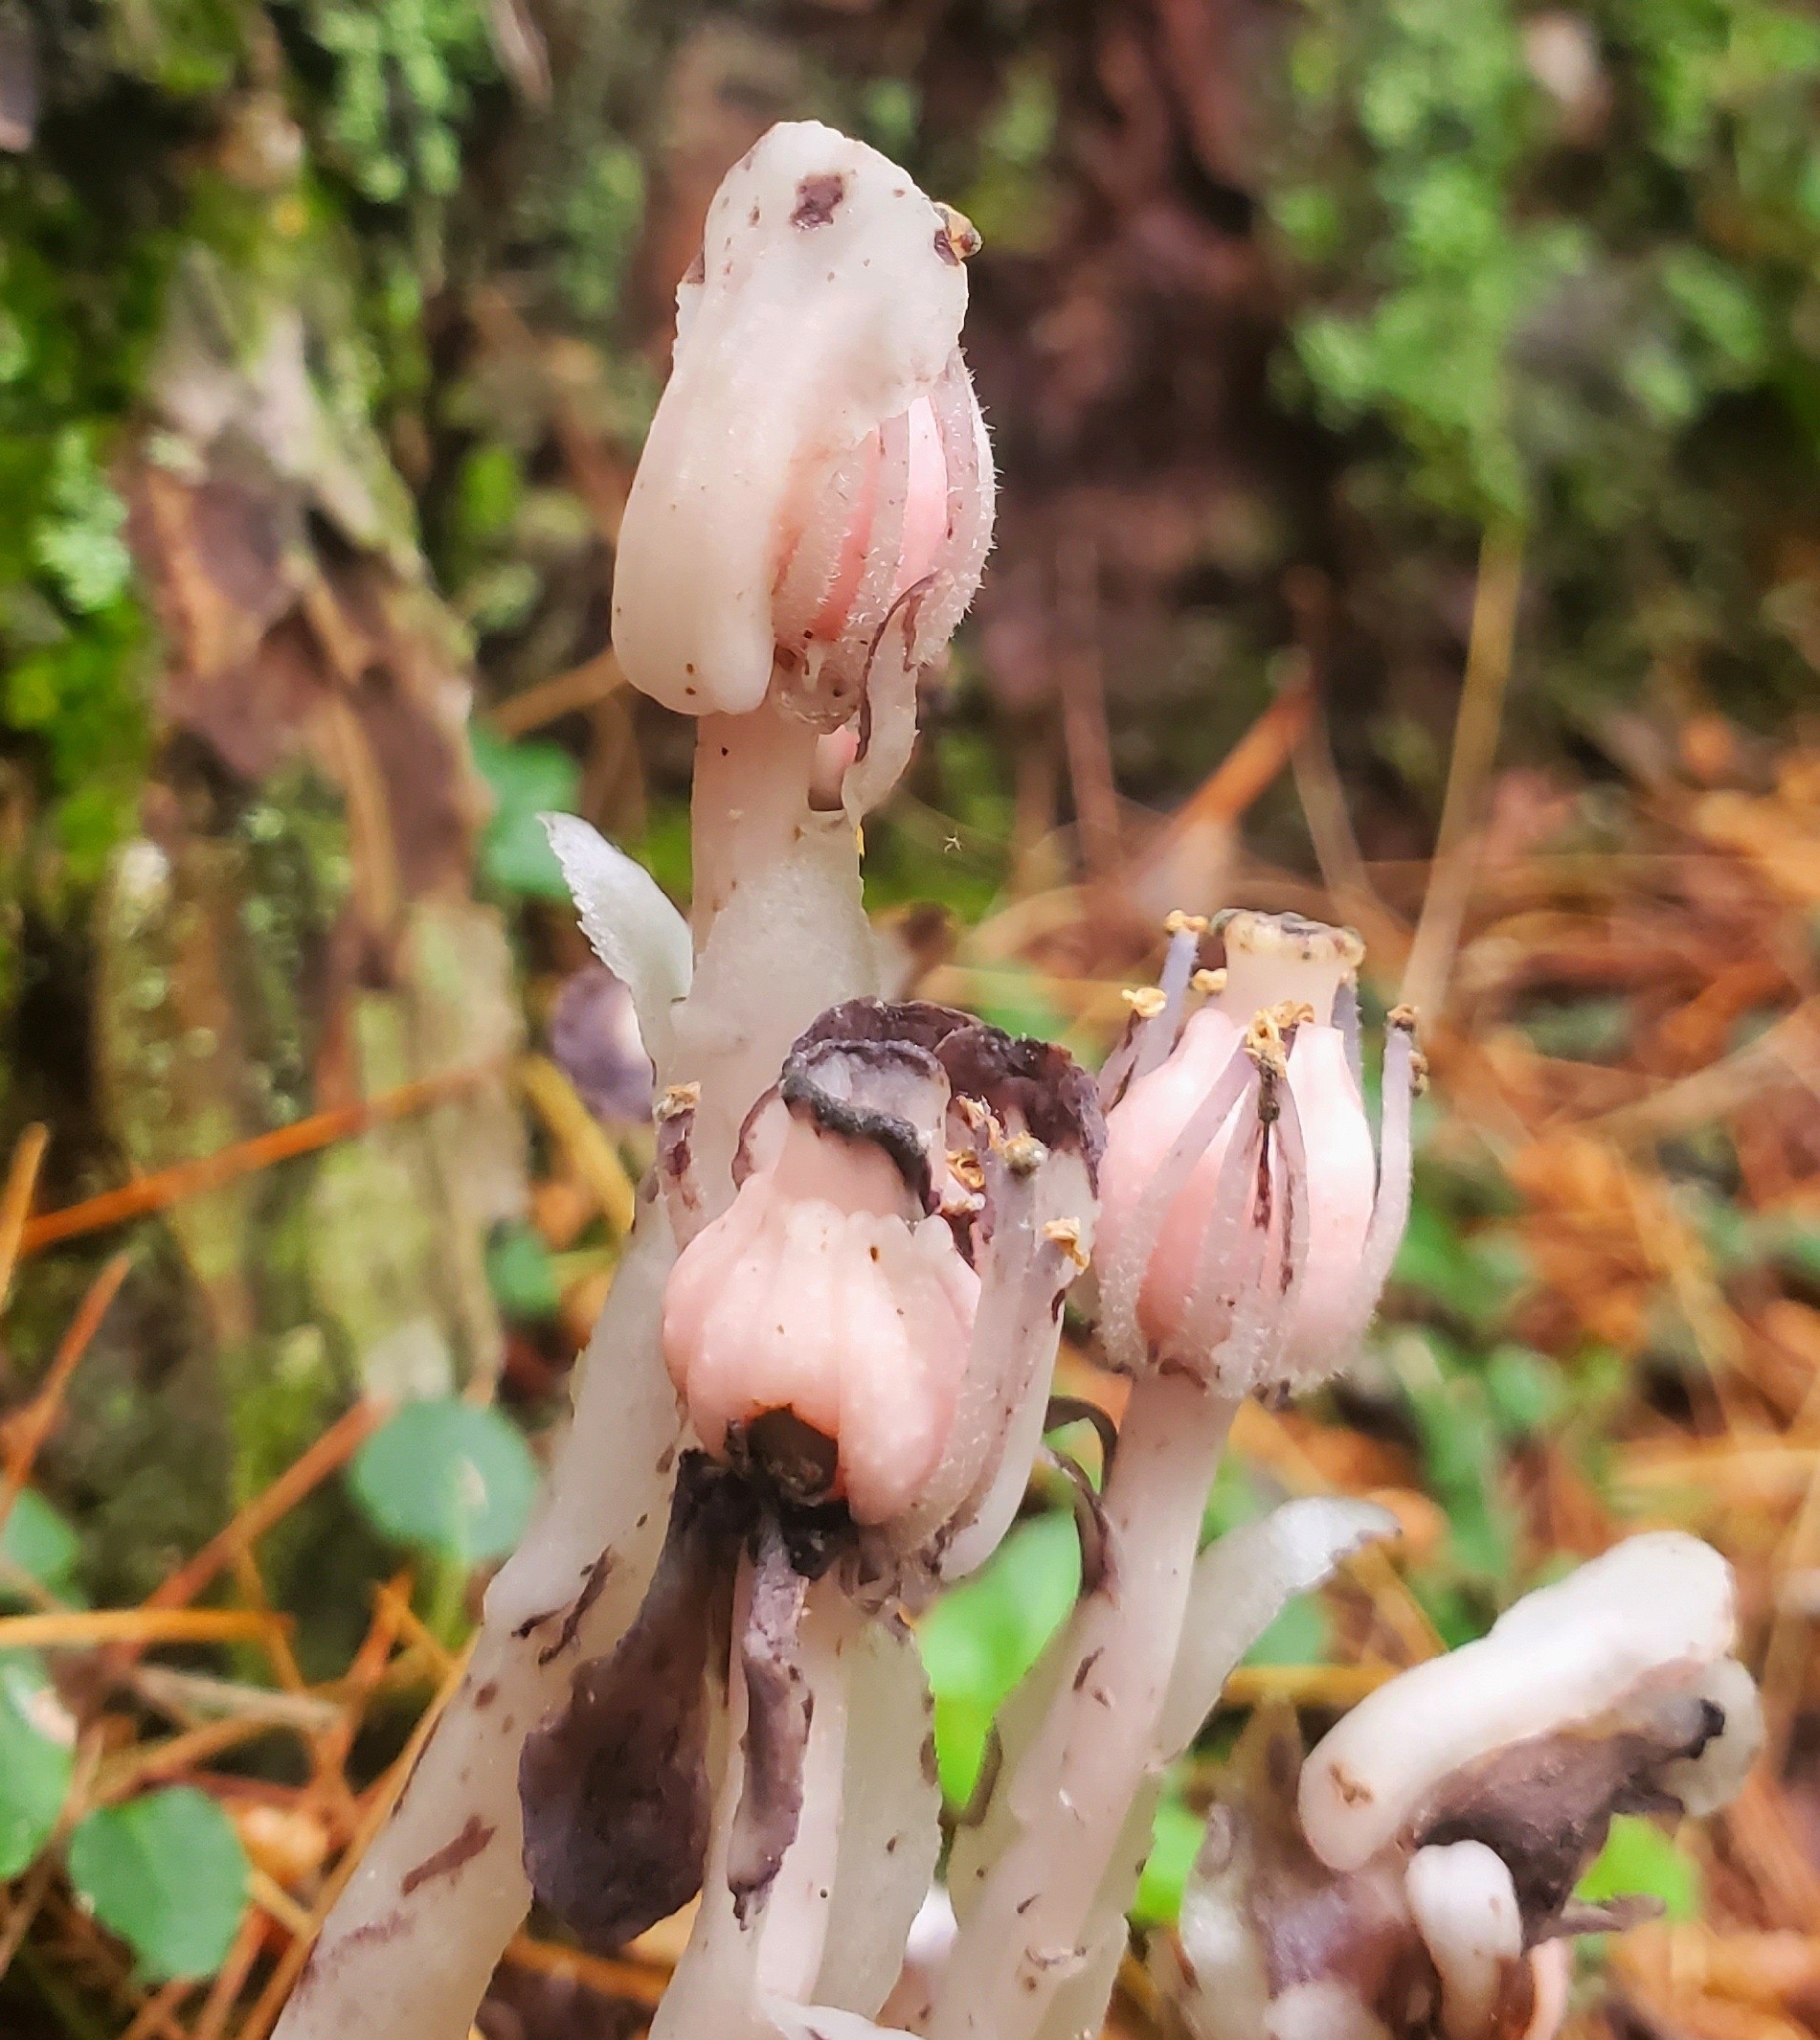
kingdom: Plantae
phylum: Tracheophyta
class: Magnoliopsida
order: Ericales
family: Ericaceae
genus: Monotropa
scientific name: Monotropa uniflora
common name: Convulsion root
